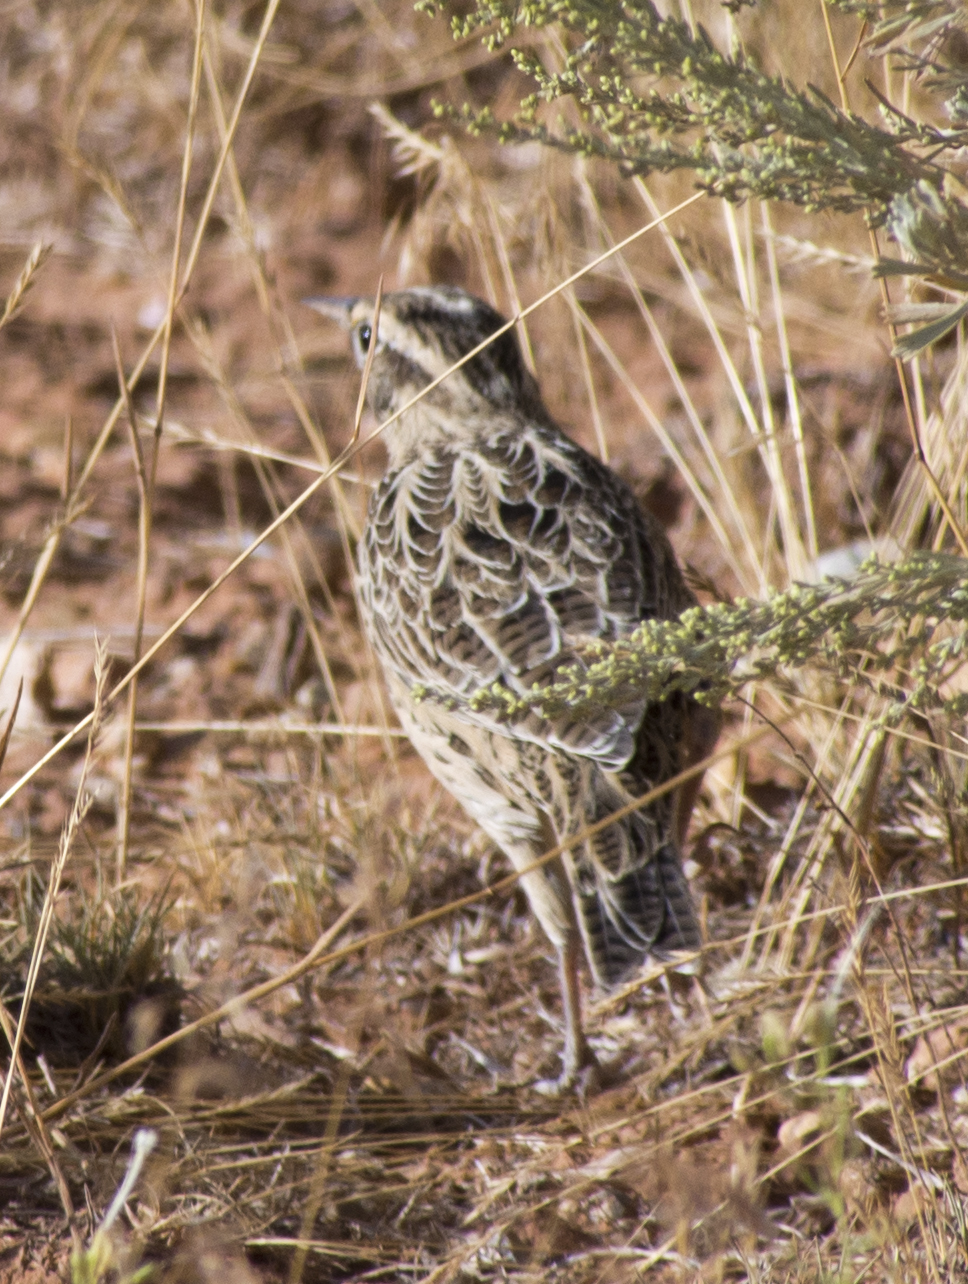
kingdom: Animalia
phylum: Chordata
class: Aves
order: Passeriformes
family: Icteridae
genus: Sturnella
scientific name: Sturnella neglecta
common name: Western meadowlark
